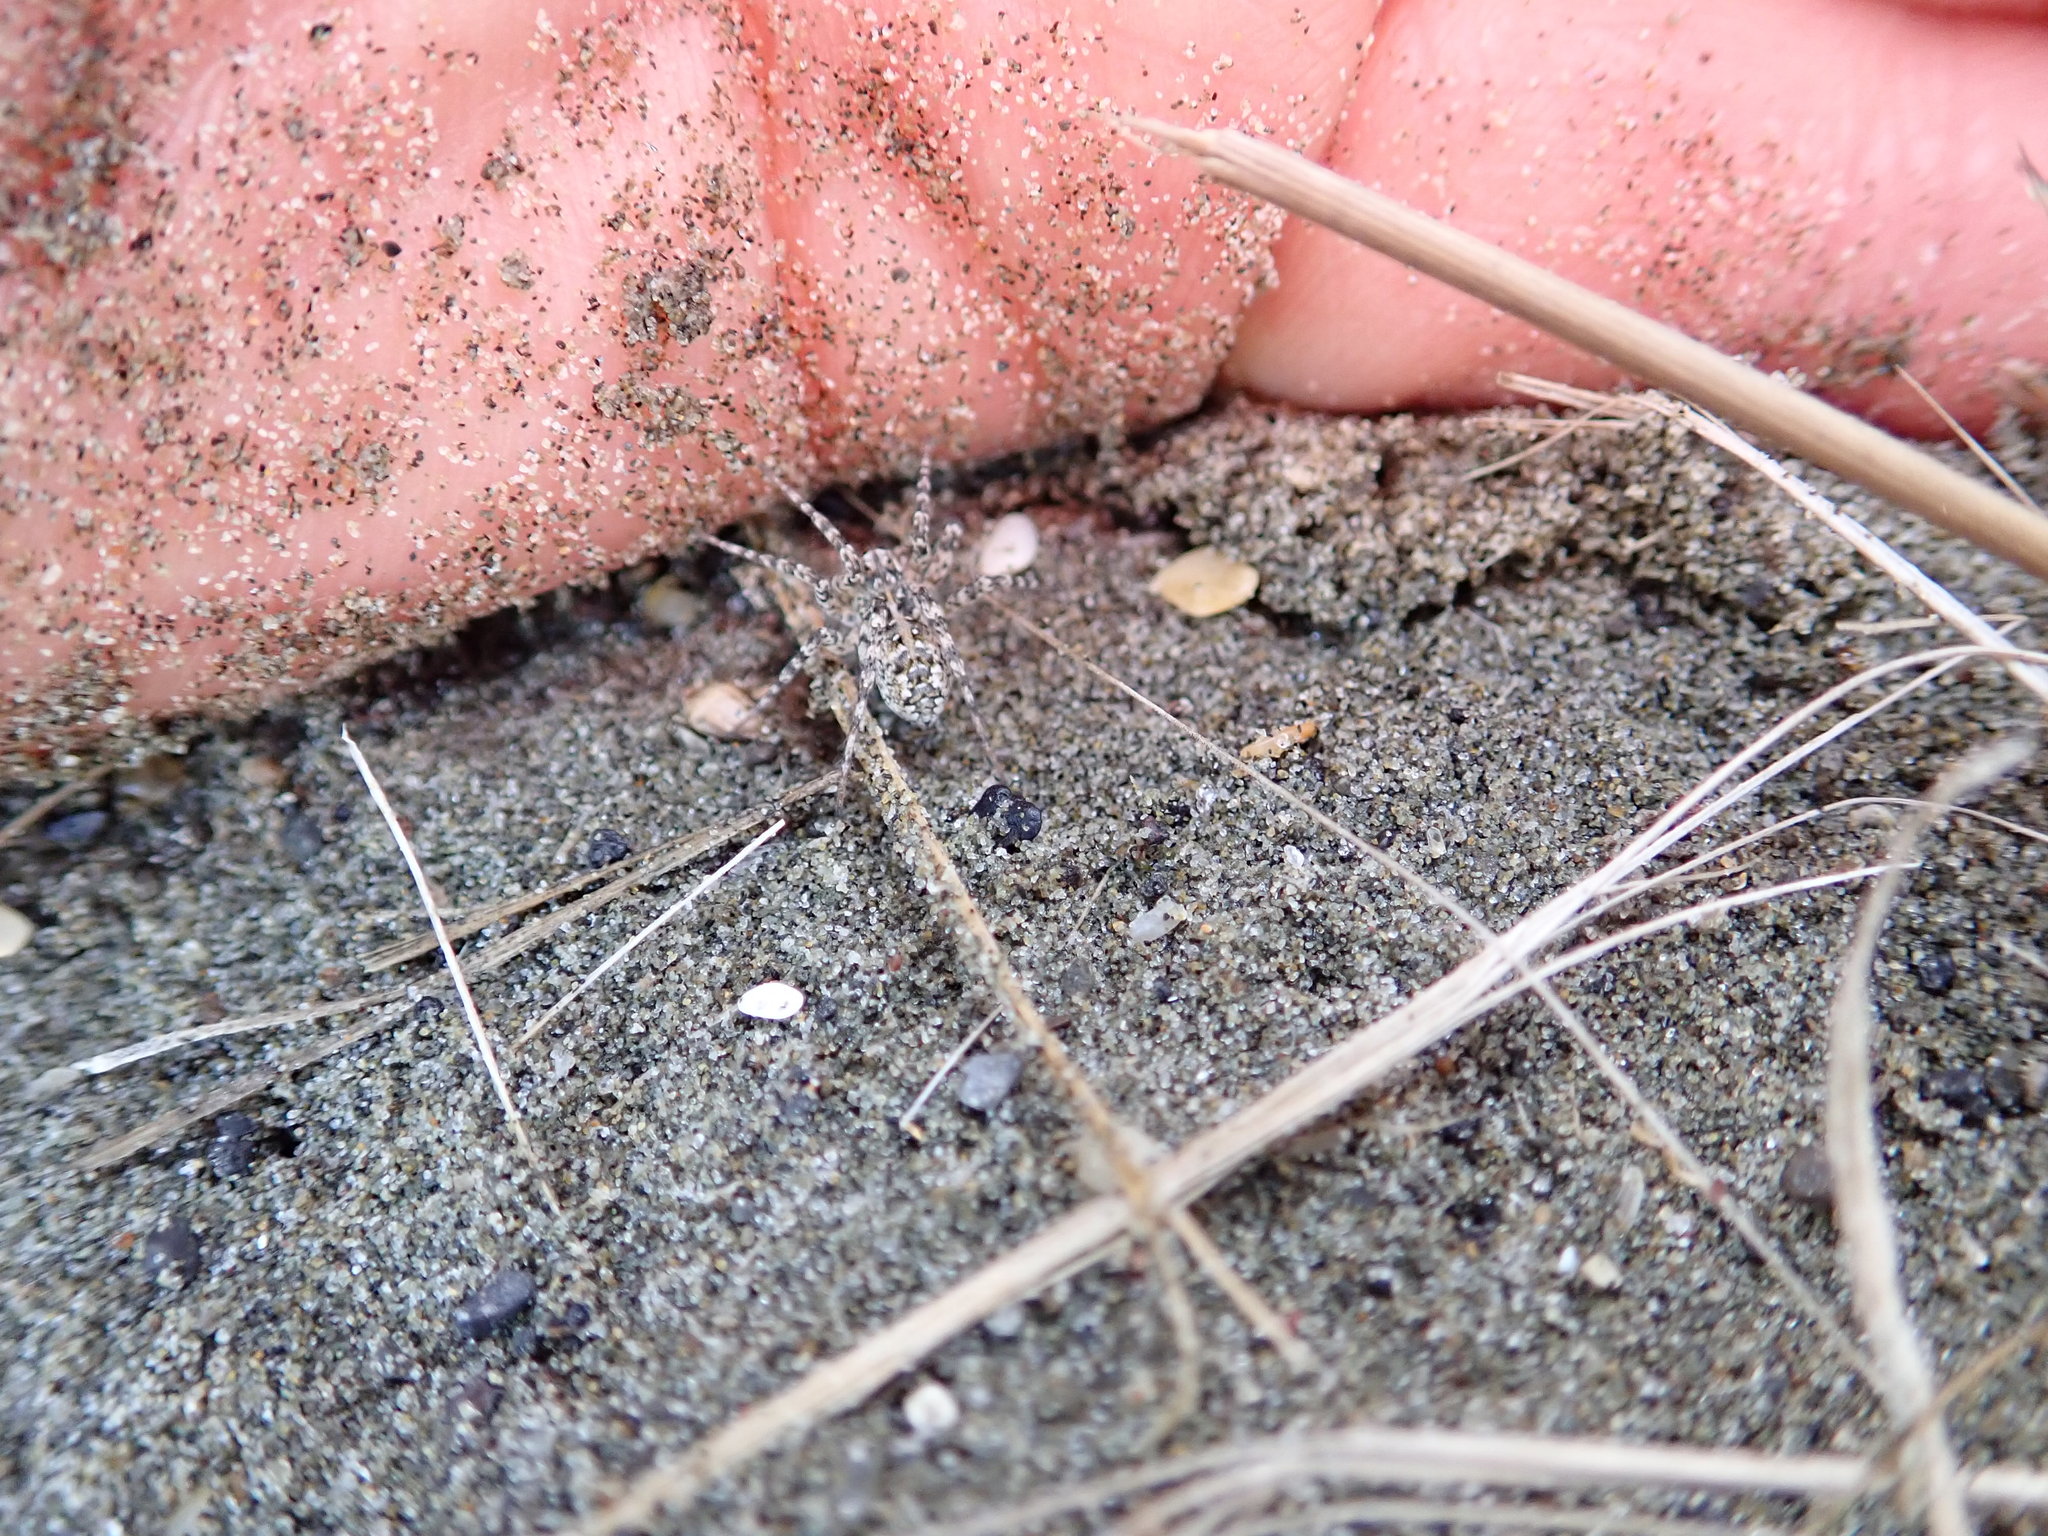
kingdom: Animalia
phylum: Arthropoda
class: Arachnida
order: Araneae
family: Lycosidae
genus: Anoteropsis
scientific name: Anoteropsis litoralis
